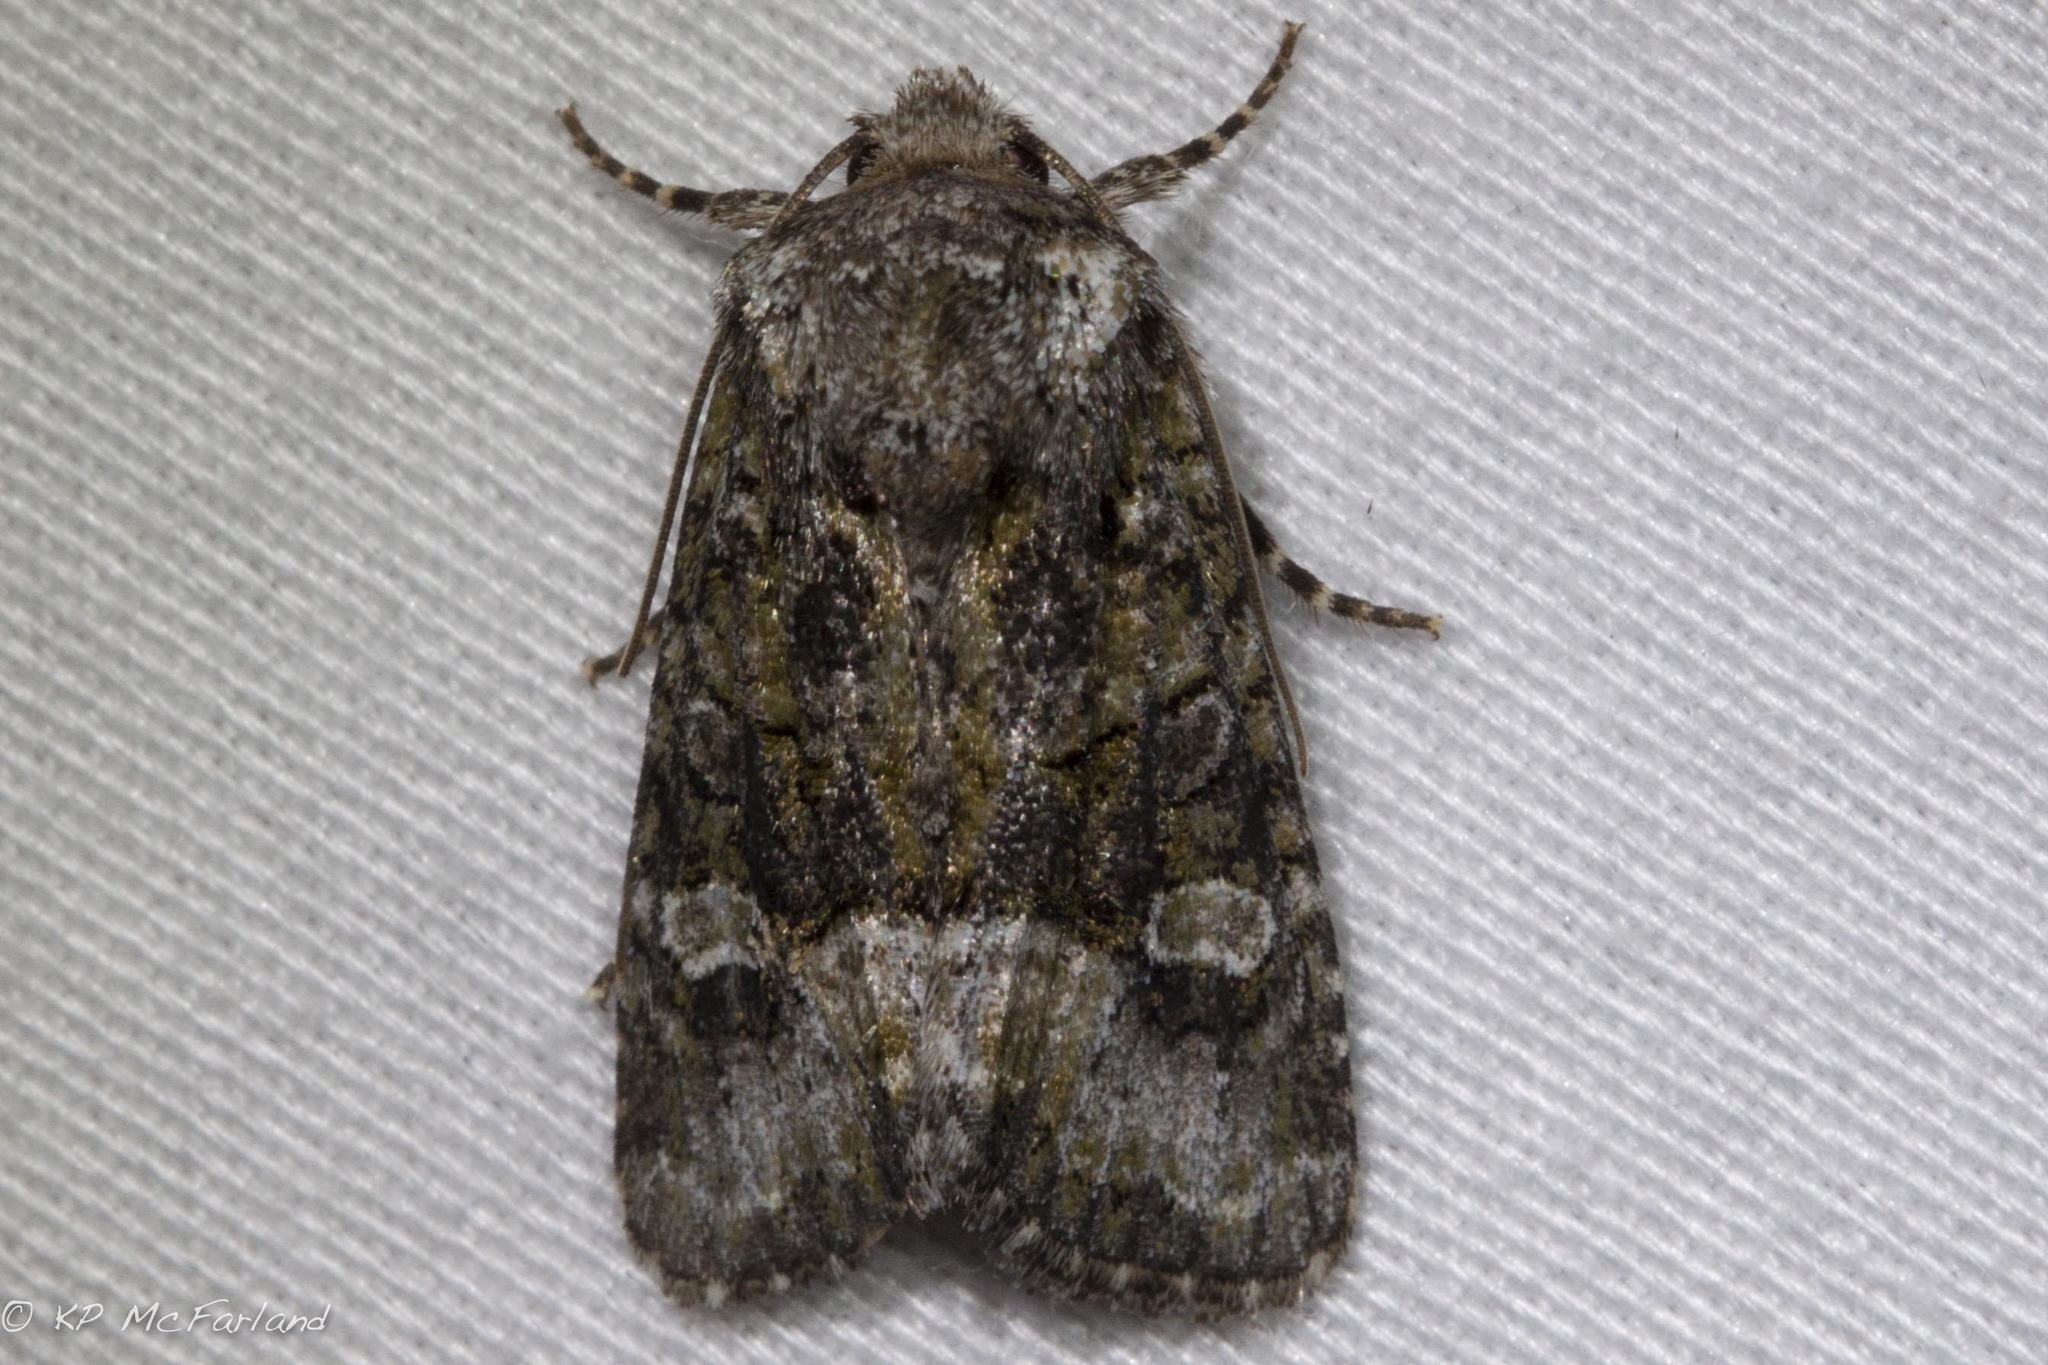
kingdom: Animalia
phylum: Arthropoda
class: Insecta
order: Lepidoptera
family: Noctuidae
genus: Lacinipolia
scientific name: Lacinipolia olivacea
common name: Olive arches moth
